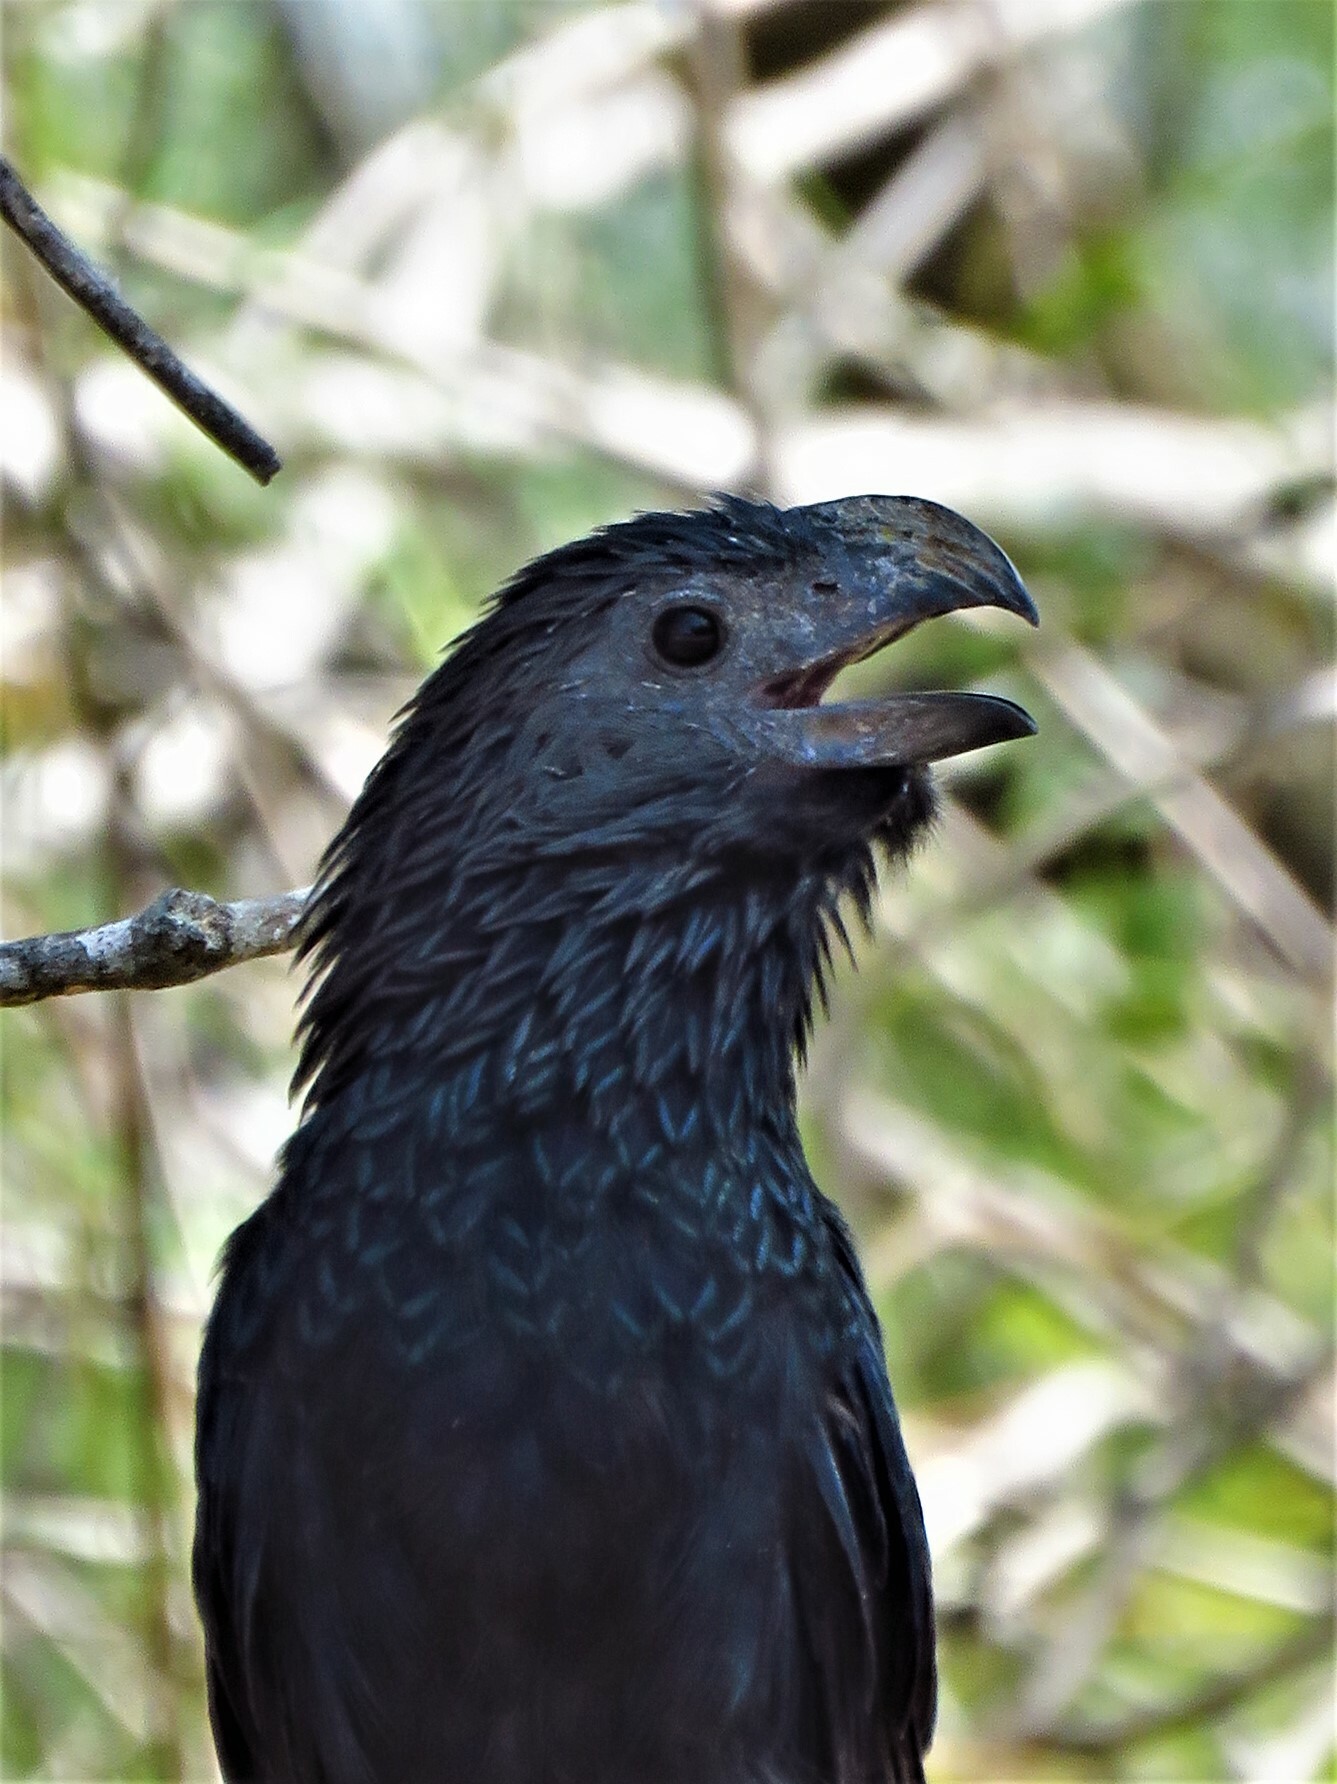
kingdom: Animalia
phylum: Chordata
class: Aves
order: Cuculiformes
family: Cuculidae
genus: Crotophaga
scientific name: Crotophaga sulcirostris
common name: Groove-billed ani
